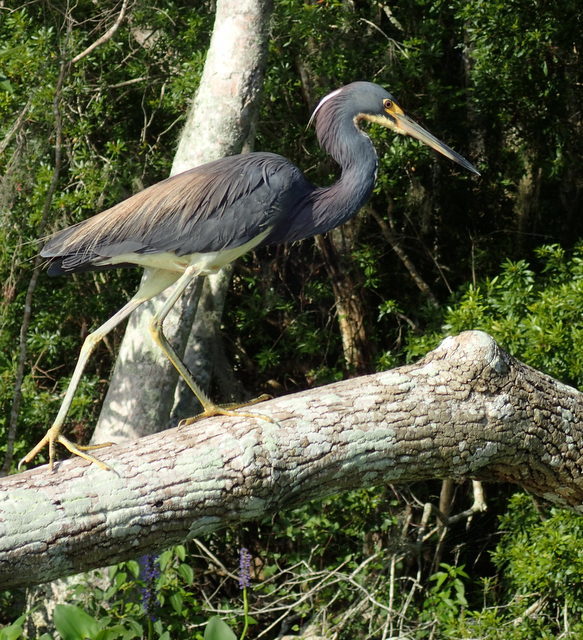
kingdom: Animalia
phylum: Chordata
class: Aves
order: Pelecaniformes
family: Ardeidae
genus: Egretta
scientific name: Egretta tricolor
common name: Tricolored heron
